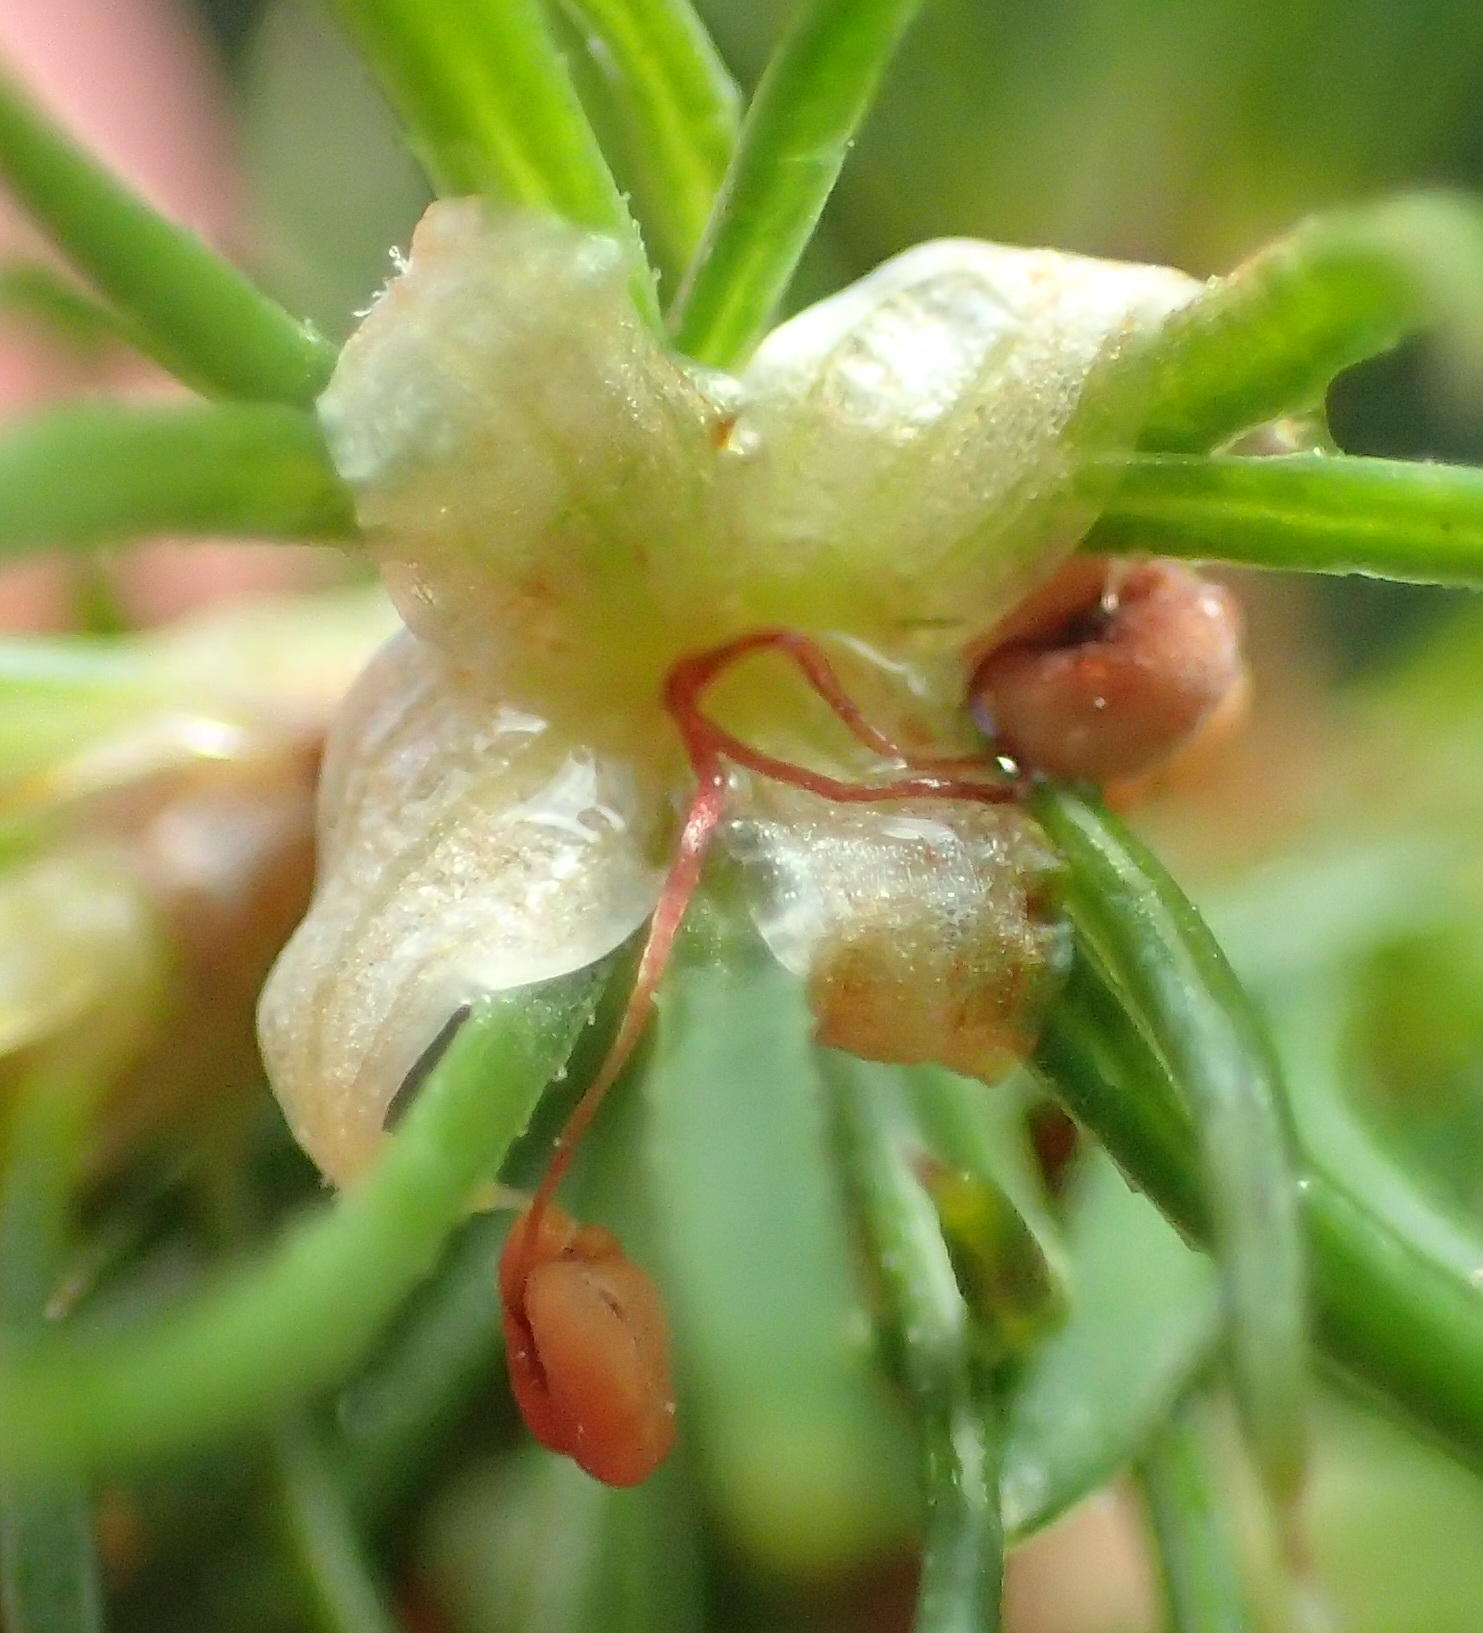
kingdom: Plantae
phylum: Tracheophyta
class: Magnoliopsida
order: Rosales
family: Rosaceae
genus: Cliffortia
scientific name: Cliffortia paucistaminea
